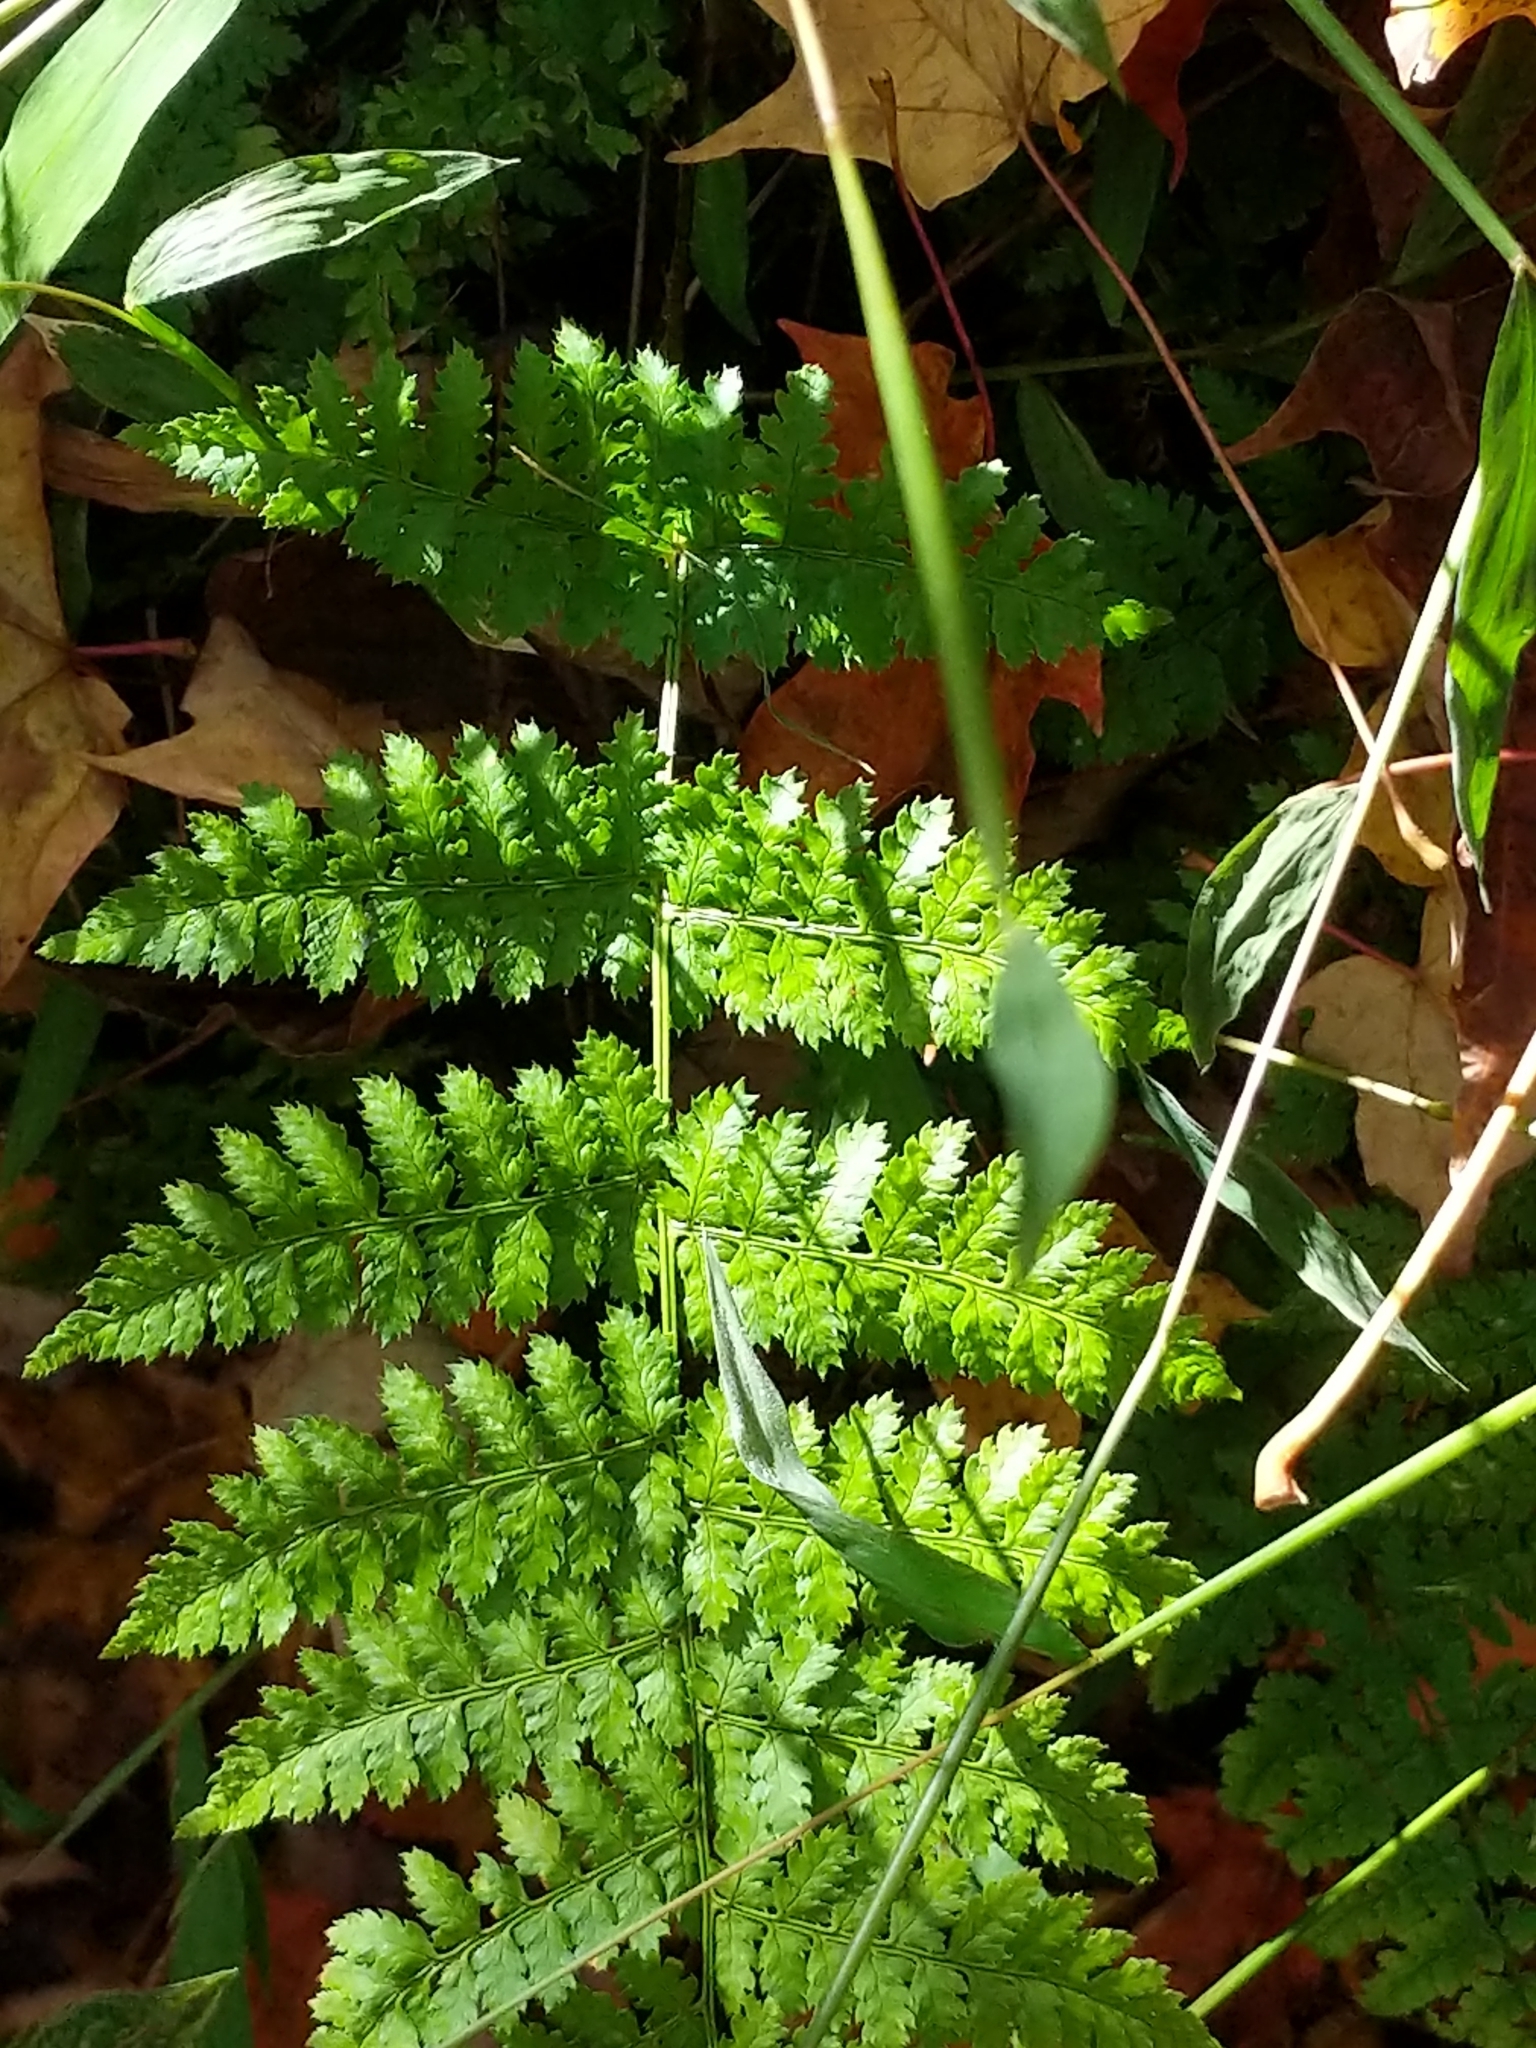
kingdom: Plantae
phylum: Tracheophyta
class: Polypodiopsida
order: Polypodiales
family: Dryopteridaceae
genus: Dryopteris
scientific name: Dryopteris intermedia
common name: Evergreen wood fern
